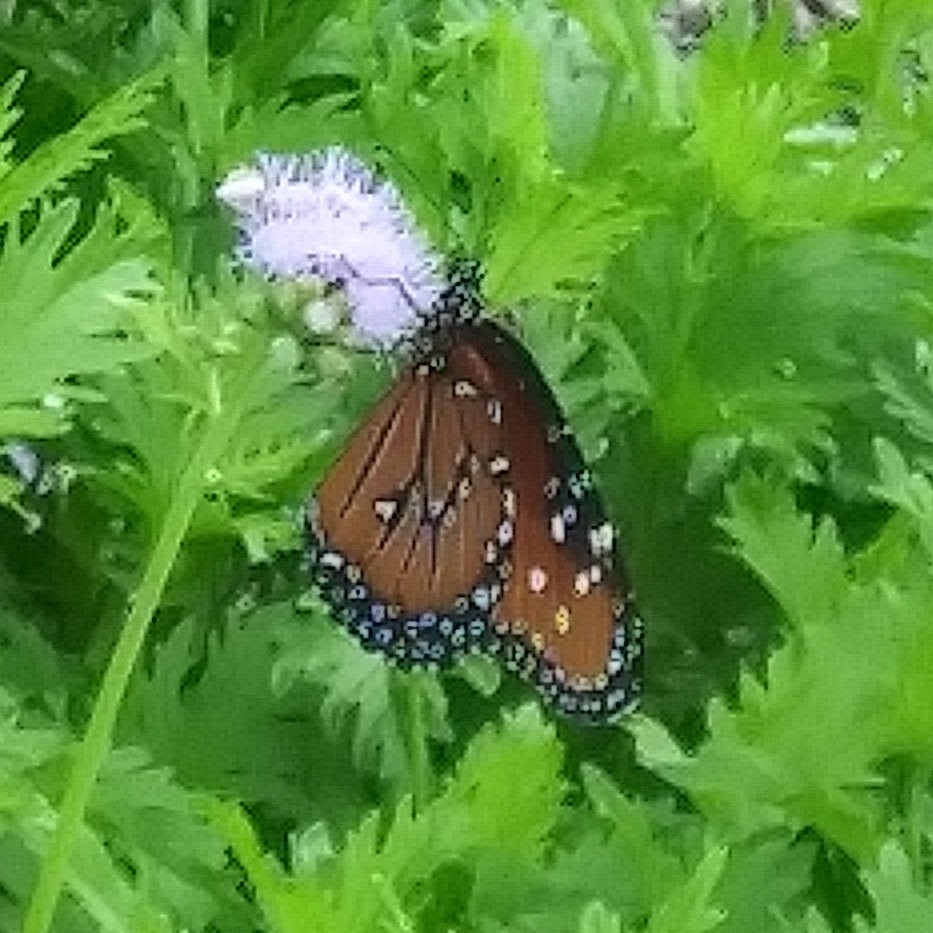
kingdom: Animalia
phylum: Arthropoda
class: Insecta
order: Lepidoptera
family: Nymphalidae
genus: Danaus
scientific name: Danaus gilippus
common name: Queen
